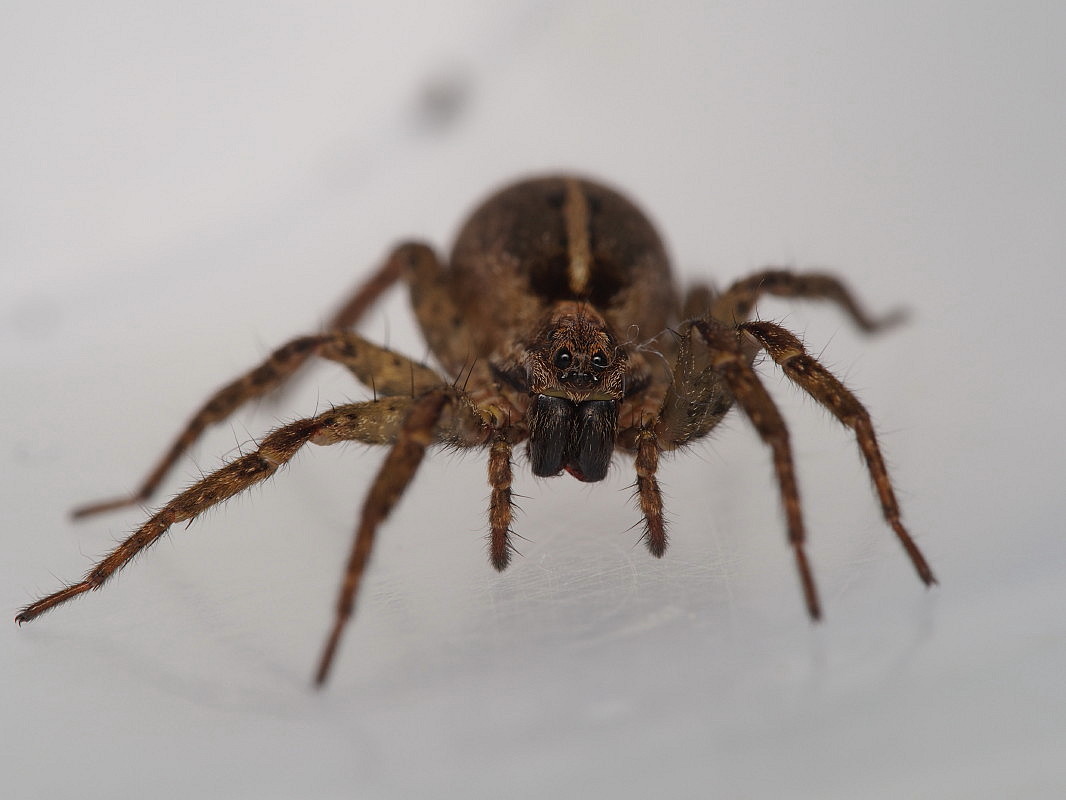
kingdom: Animalia
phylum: Arthropoda
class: Arachnida
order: Araneae
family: Lycosidae
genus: Anoteropsis
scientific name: Anoteropsis hilaris
